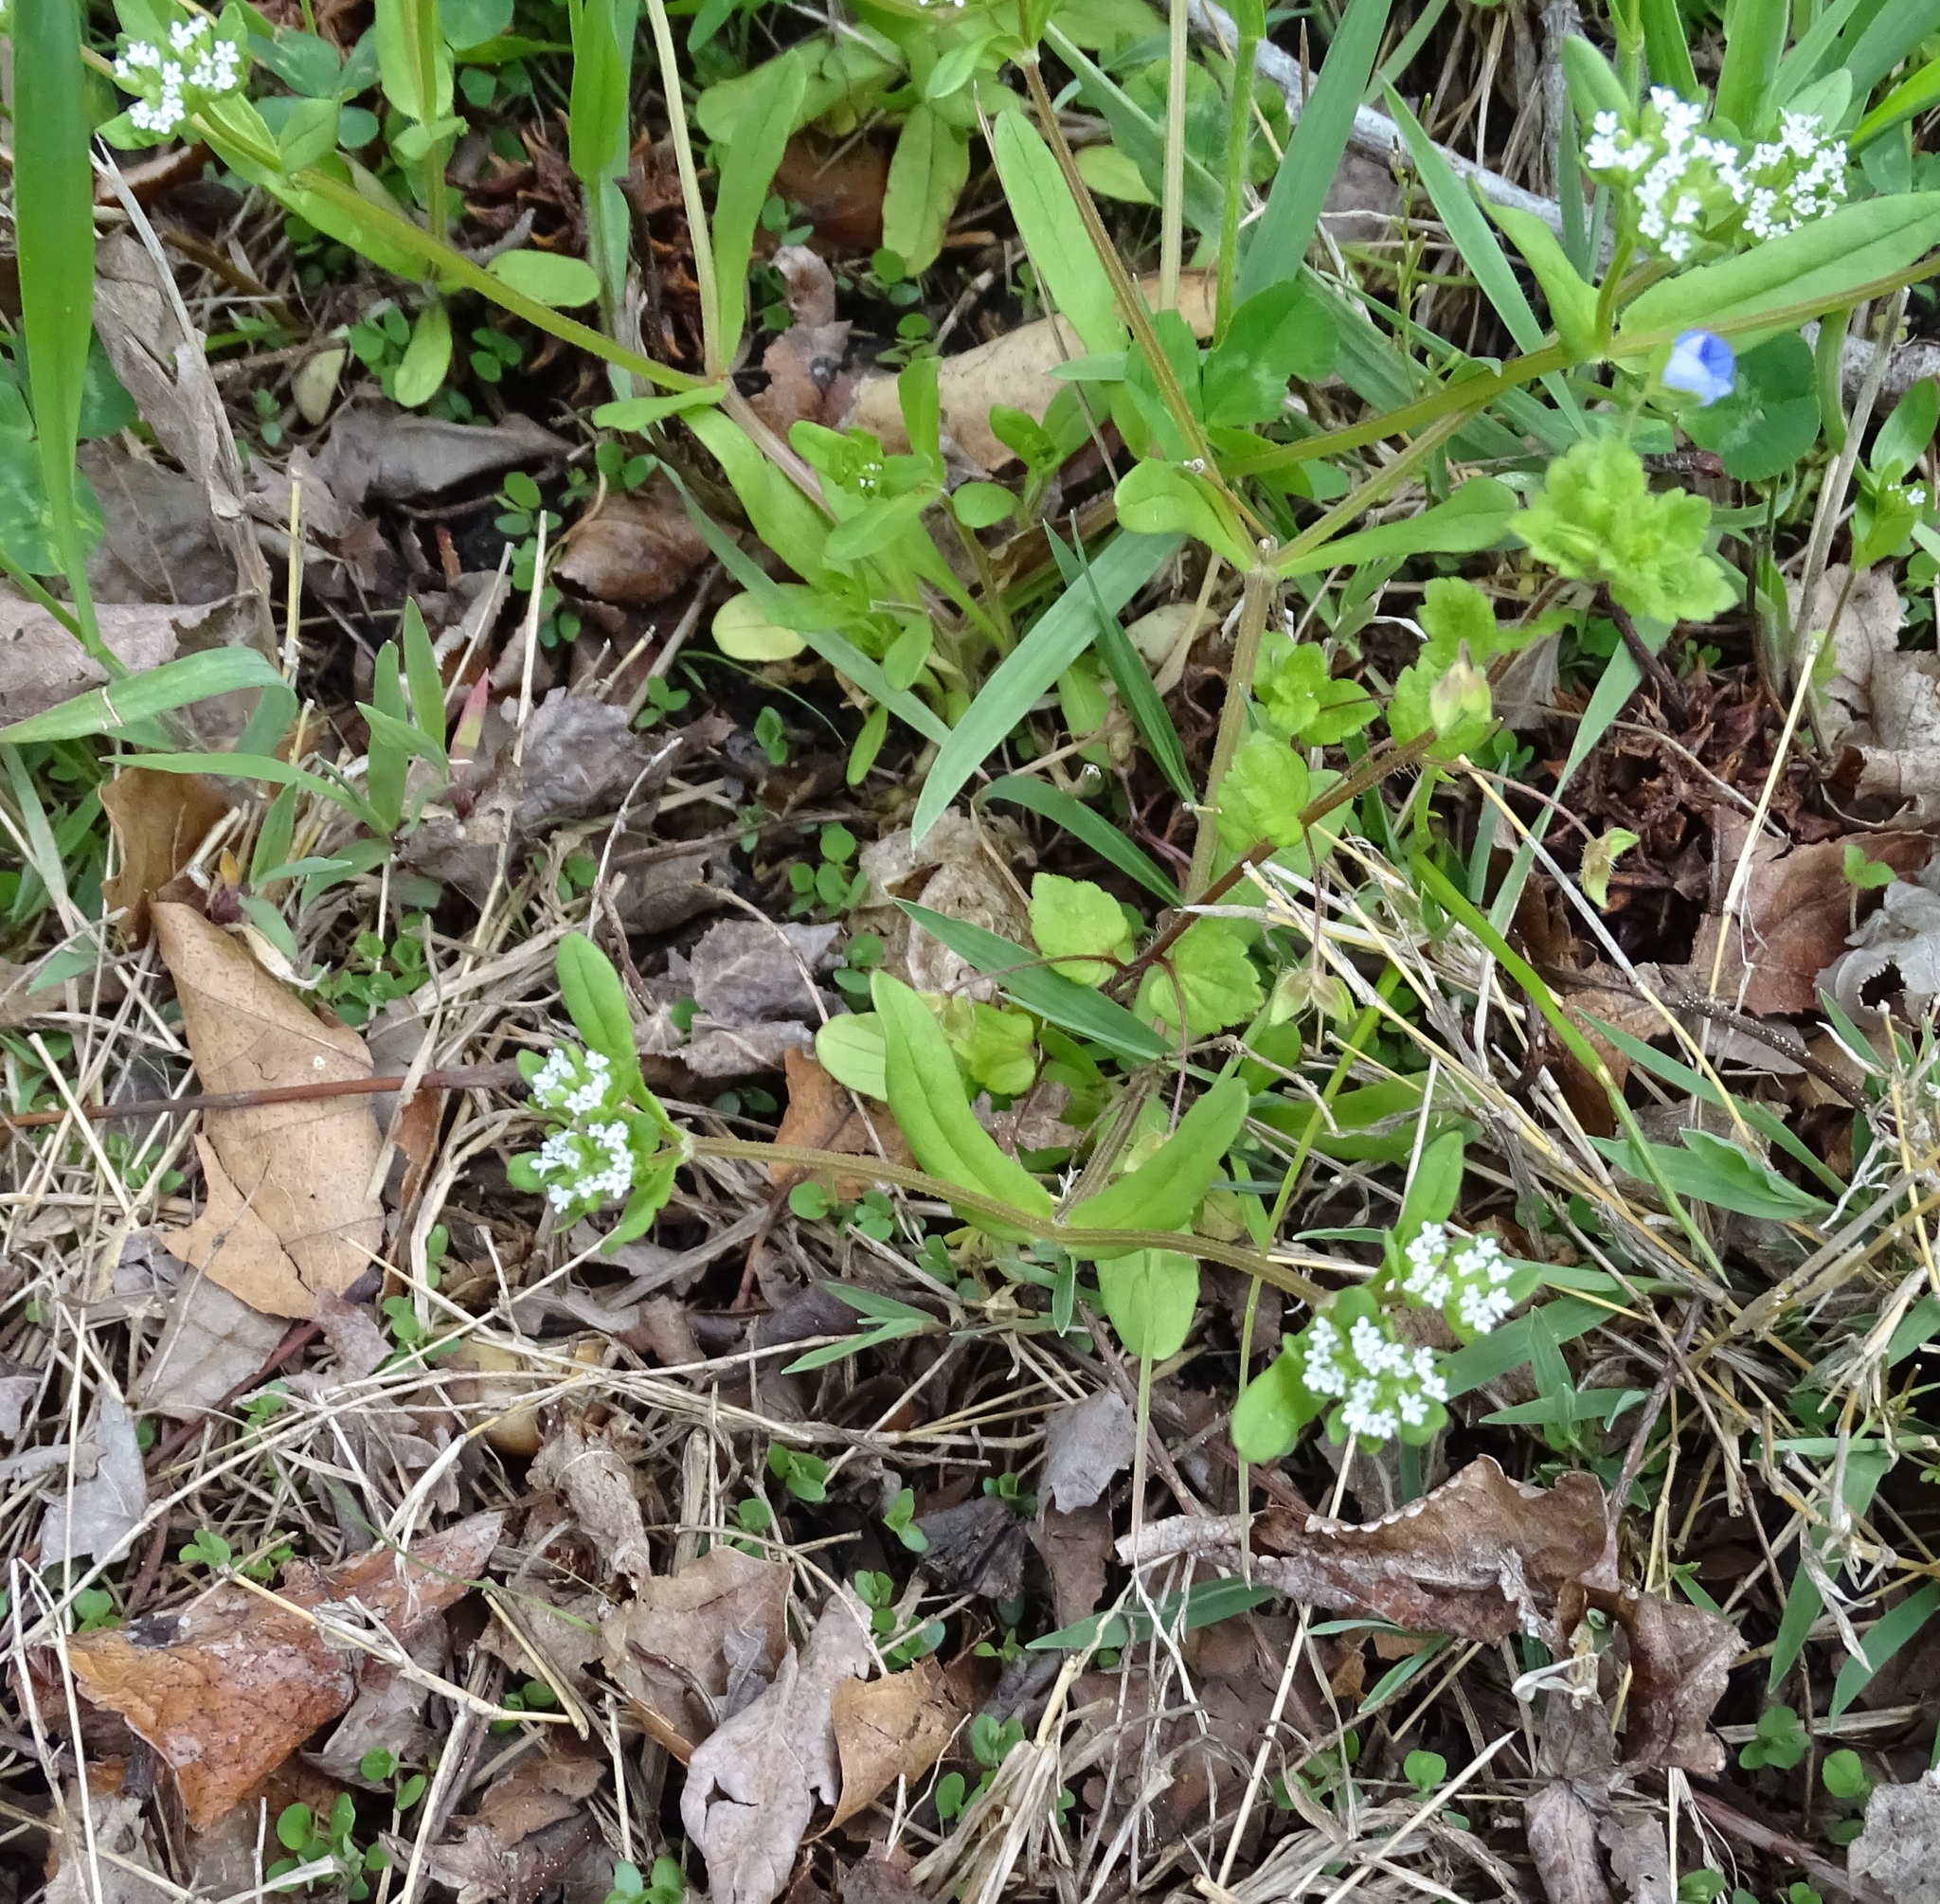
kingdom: Plantae
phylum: Tracheophyta
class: Magnoliopsida
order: Dipsacales
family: Caprifoliaceae
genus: Valerianella
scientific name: Valerianella locusta
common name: Common cornsalad
